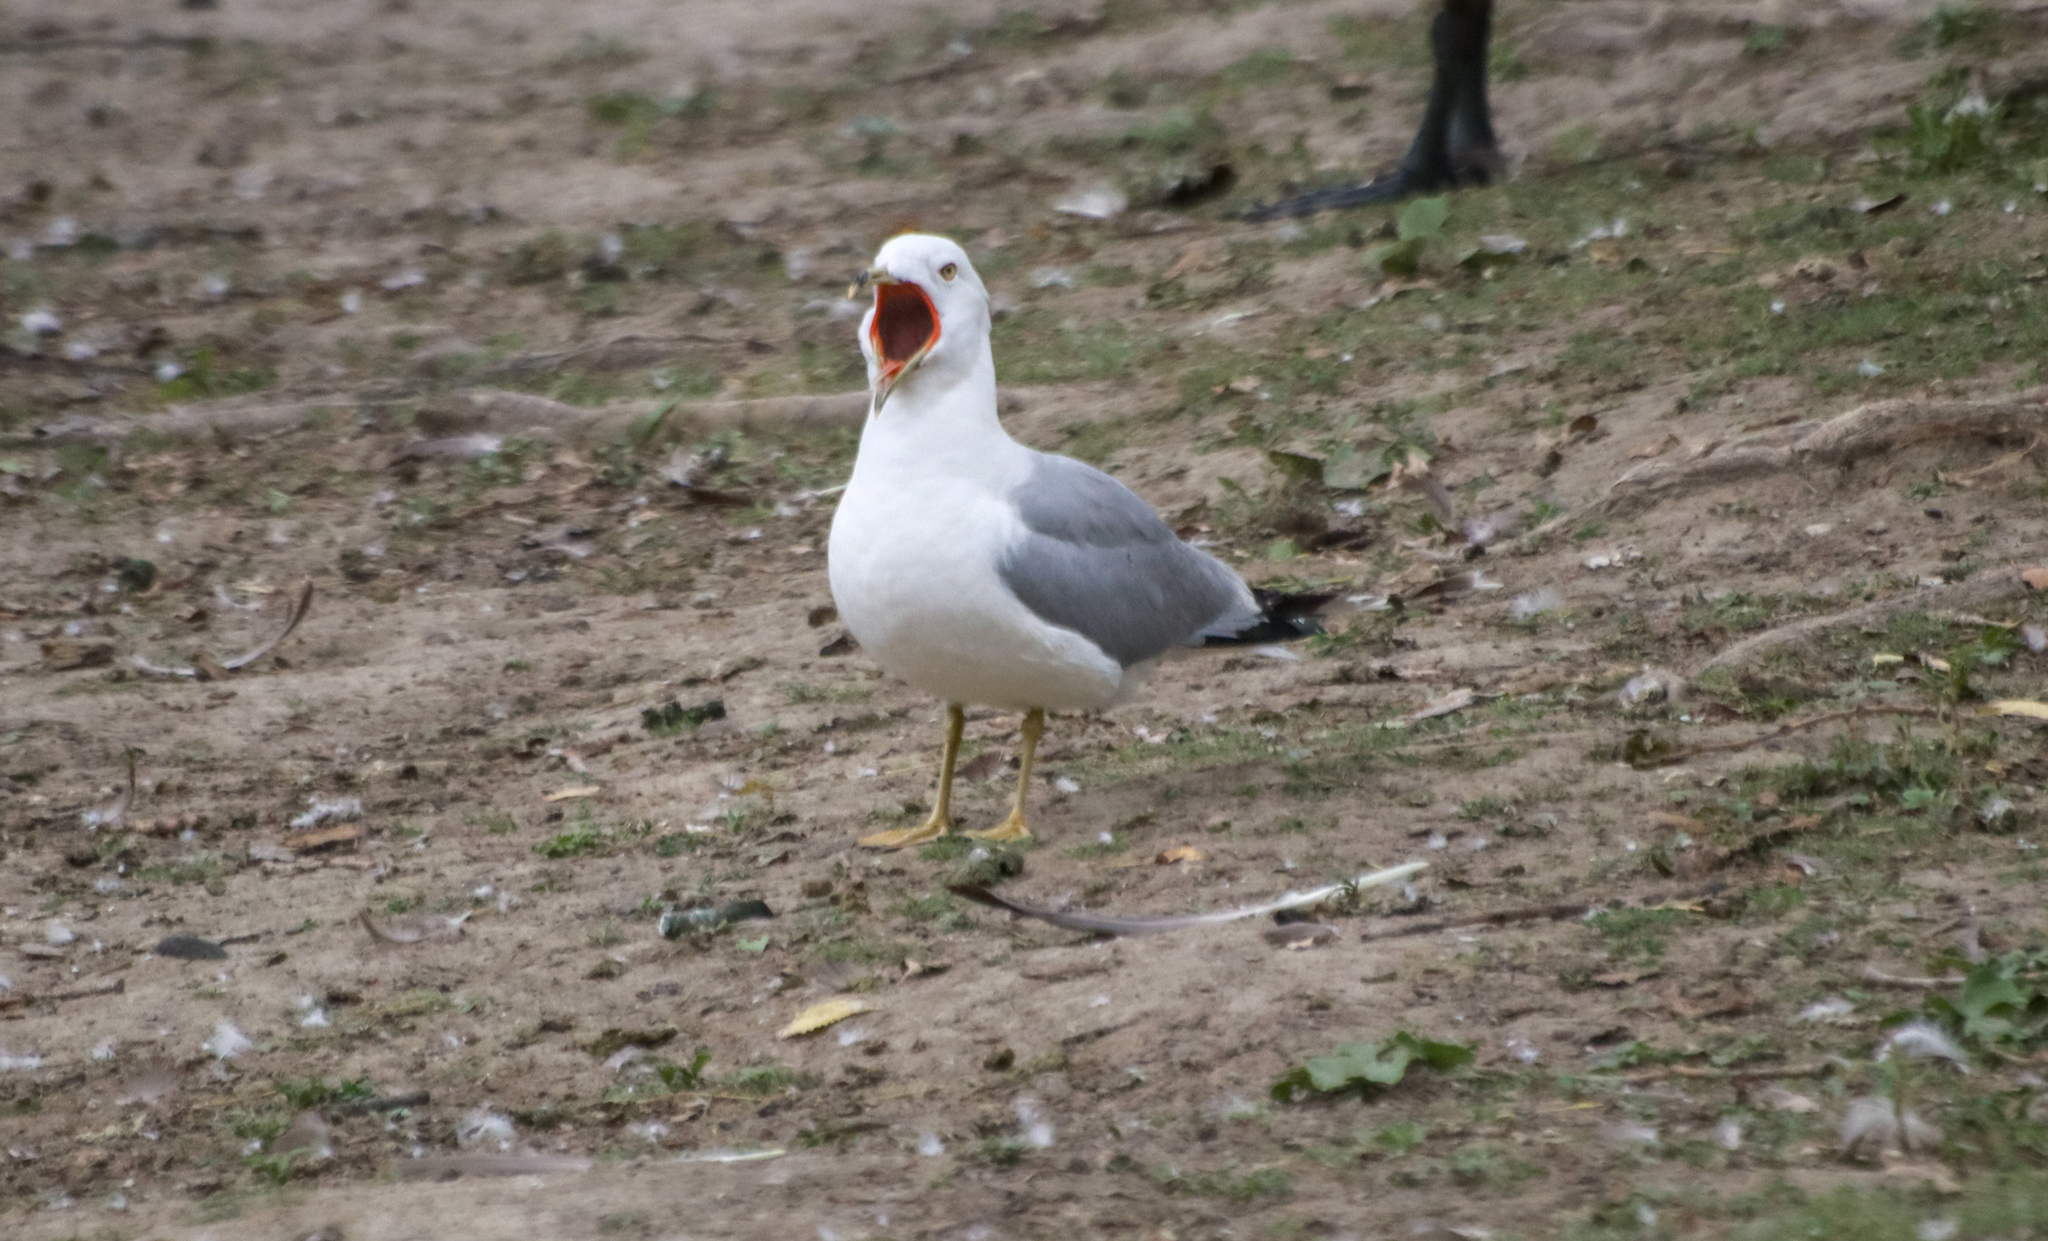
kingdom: Animalia
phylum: Chordata
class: Aves
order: Charadriiformes
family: Laridae
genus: Larus
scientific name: Larus delawarensis
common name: Ring-billed gull
